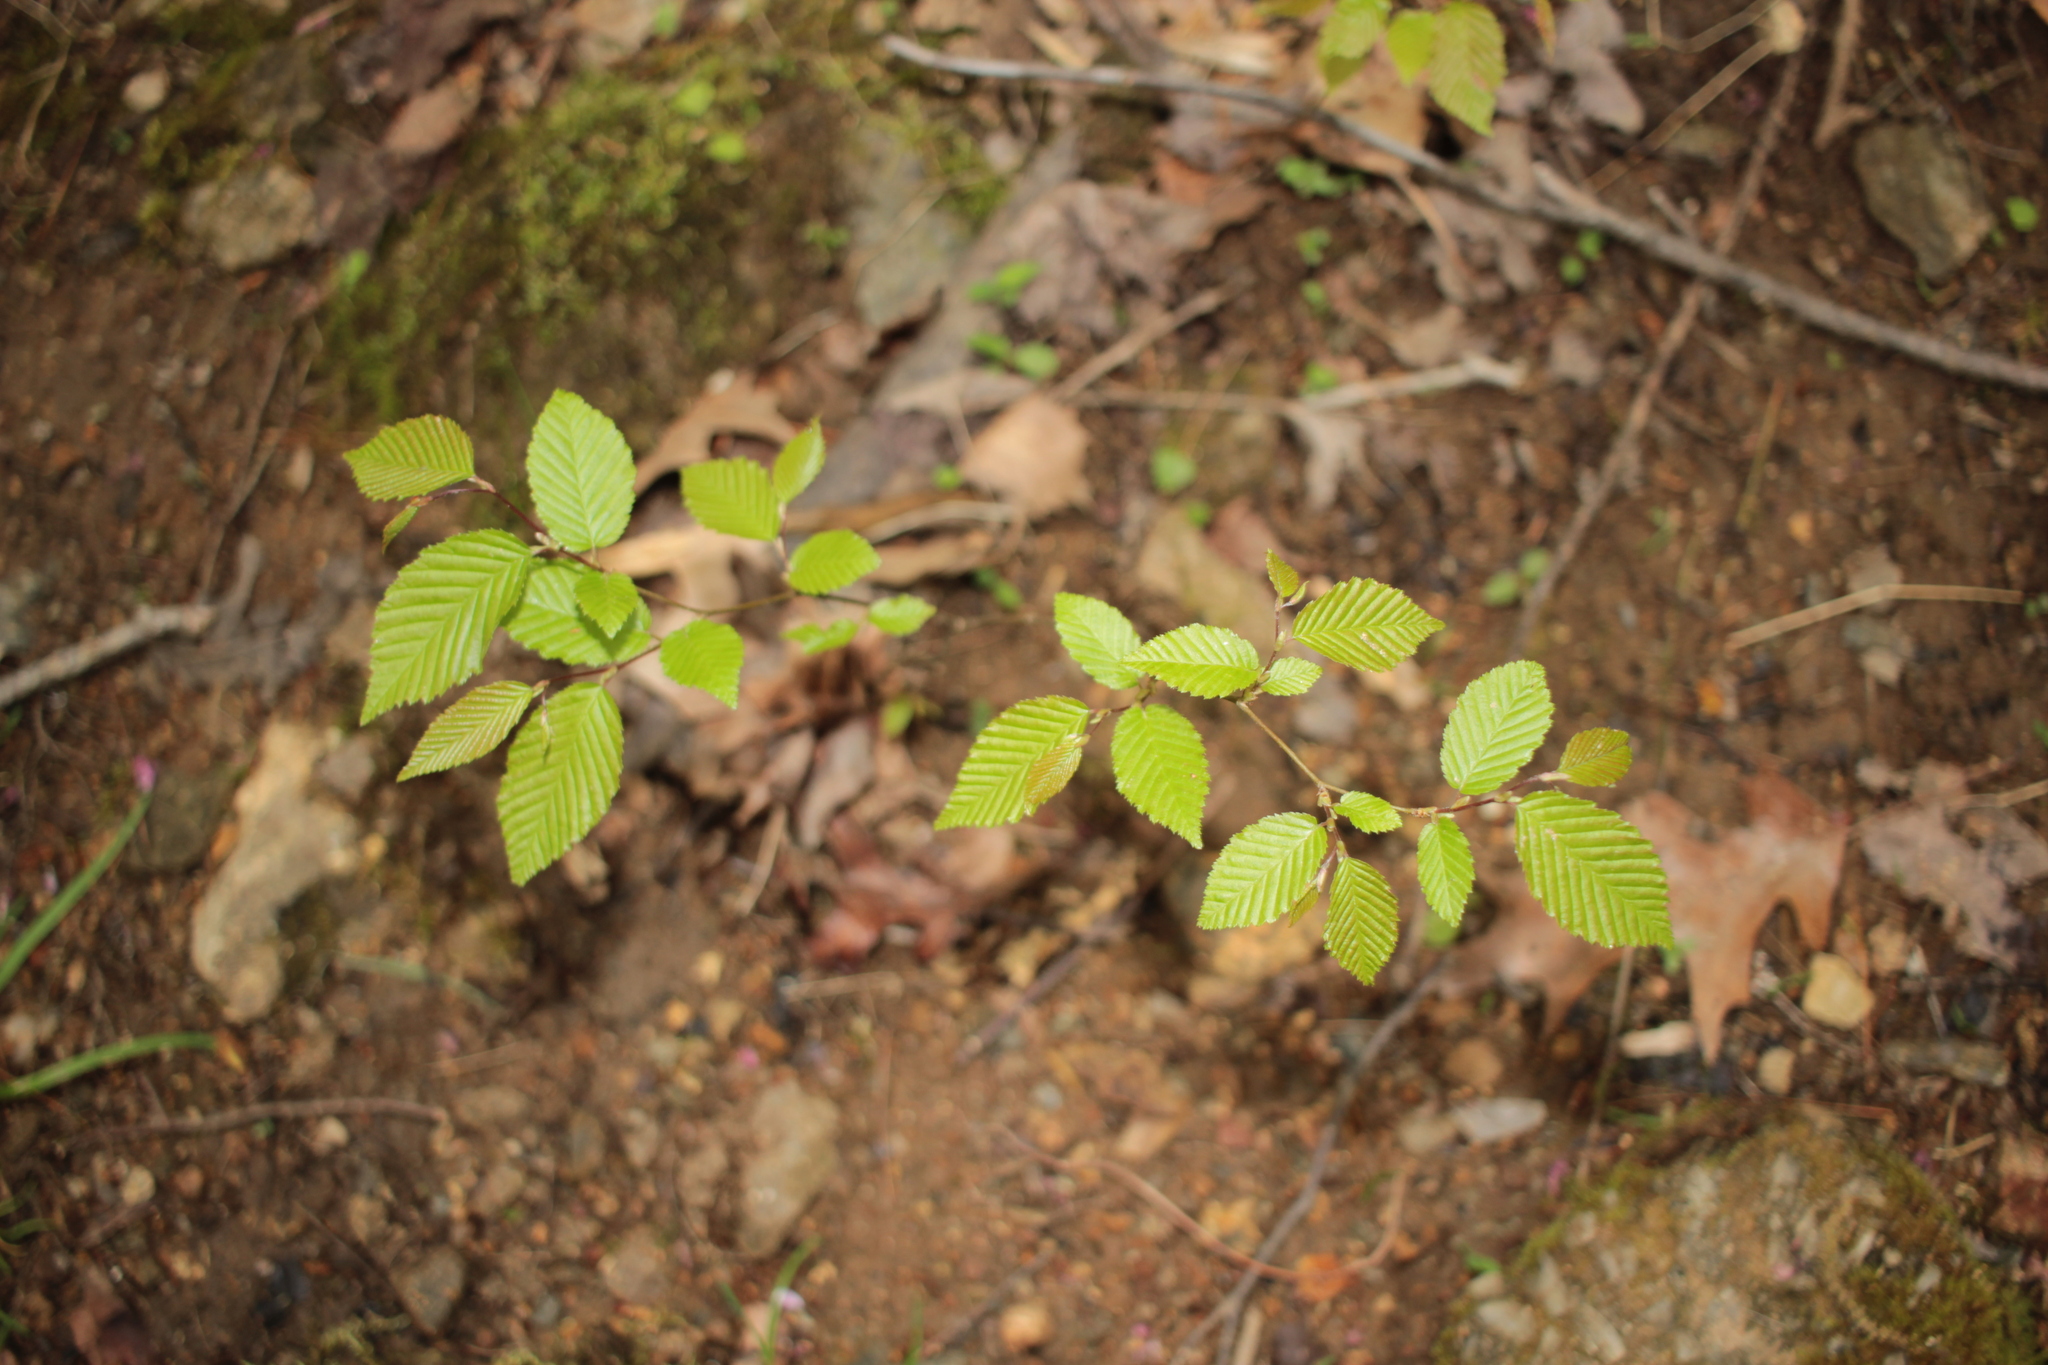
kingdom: Plantae
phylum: Tracheophyta
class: Magnoliopsida
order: Fagales
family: Betulaceae
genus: Carpinus
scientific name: Carpinus caroliniana
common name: American hornbeam
